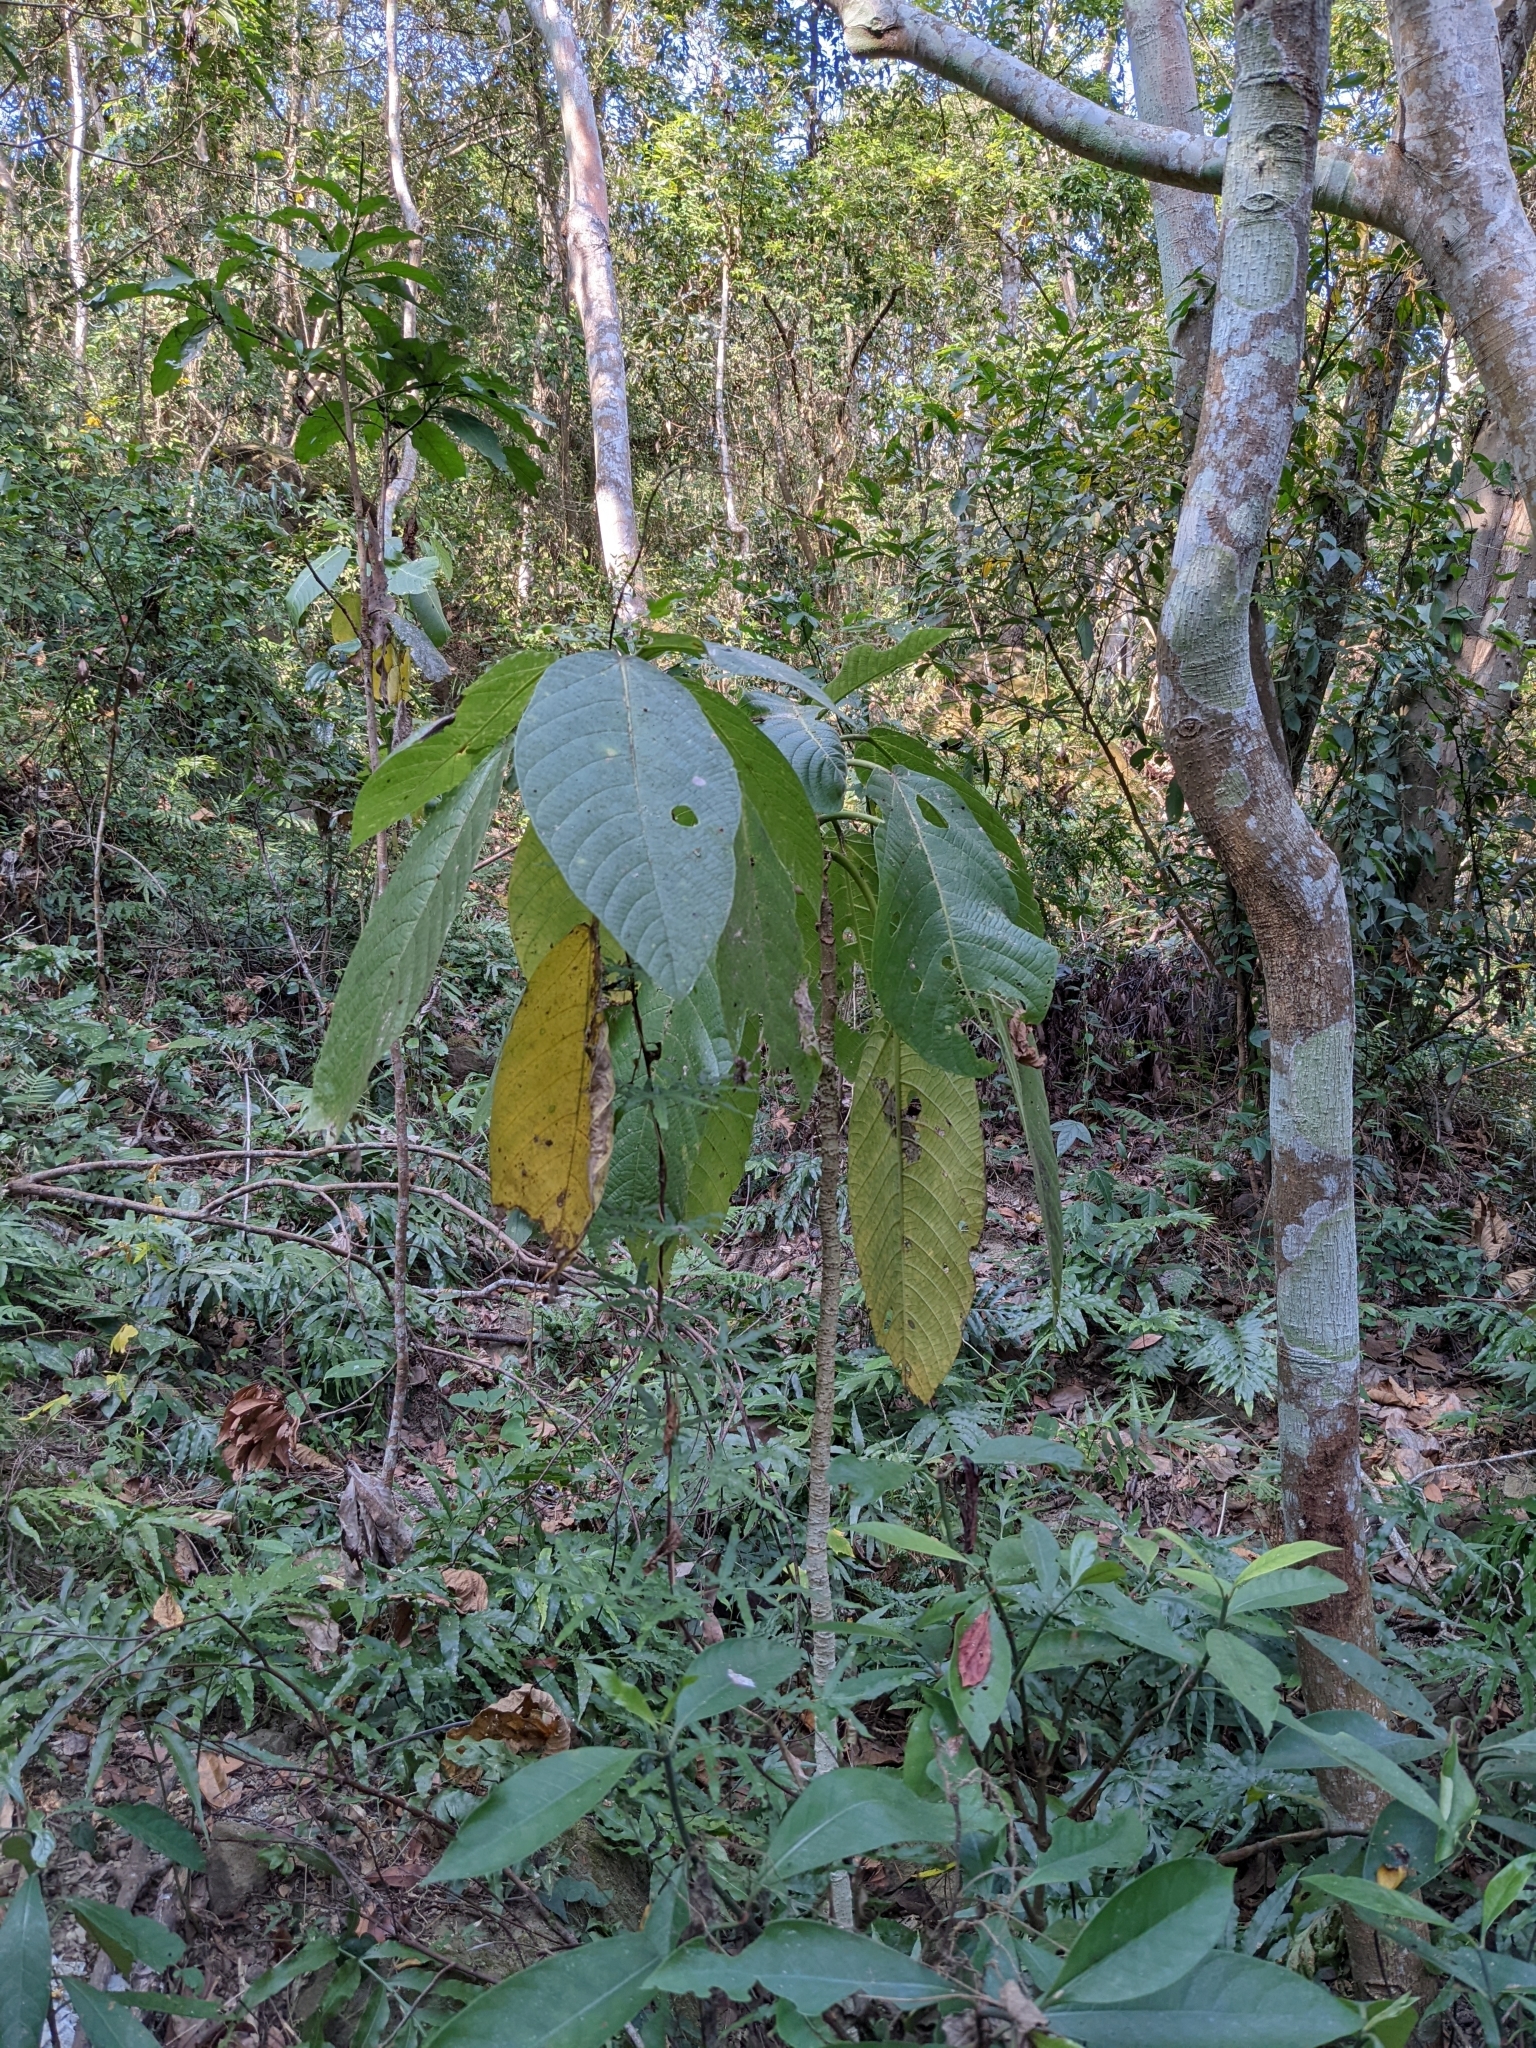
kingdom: Plantae
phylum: Tracheophyta
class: Magnoliopsida
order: Rosales
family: Urticaceae
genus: Dendrocnide
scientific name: Dendrocnide meyeniana
